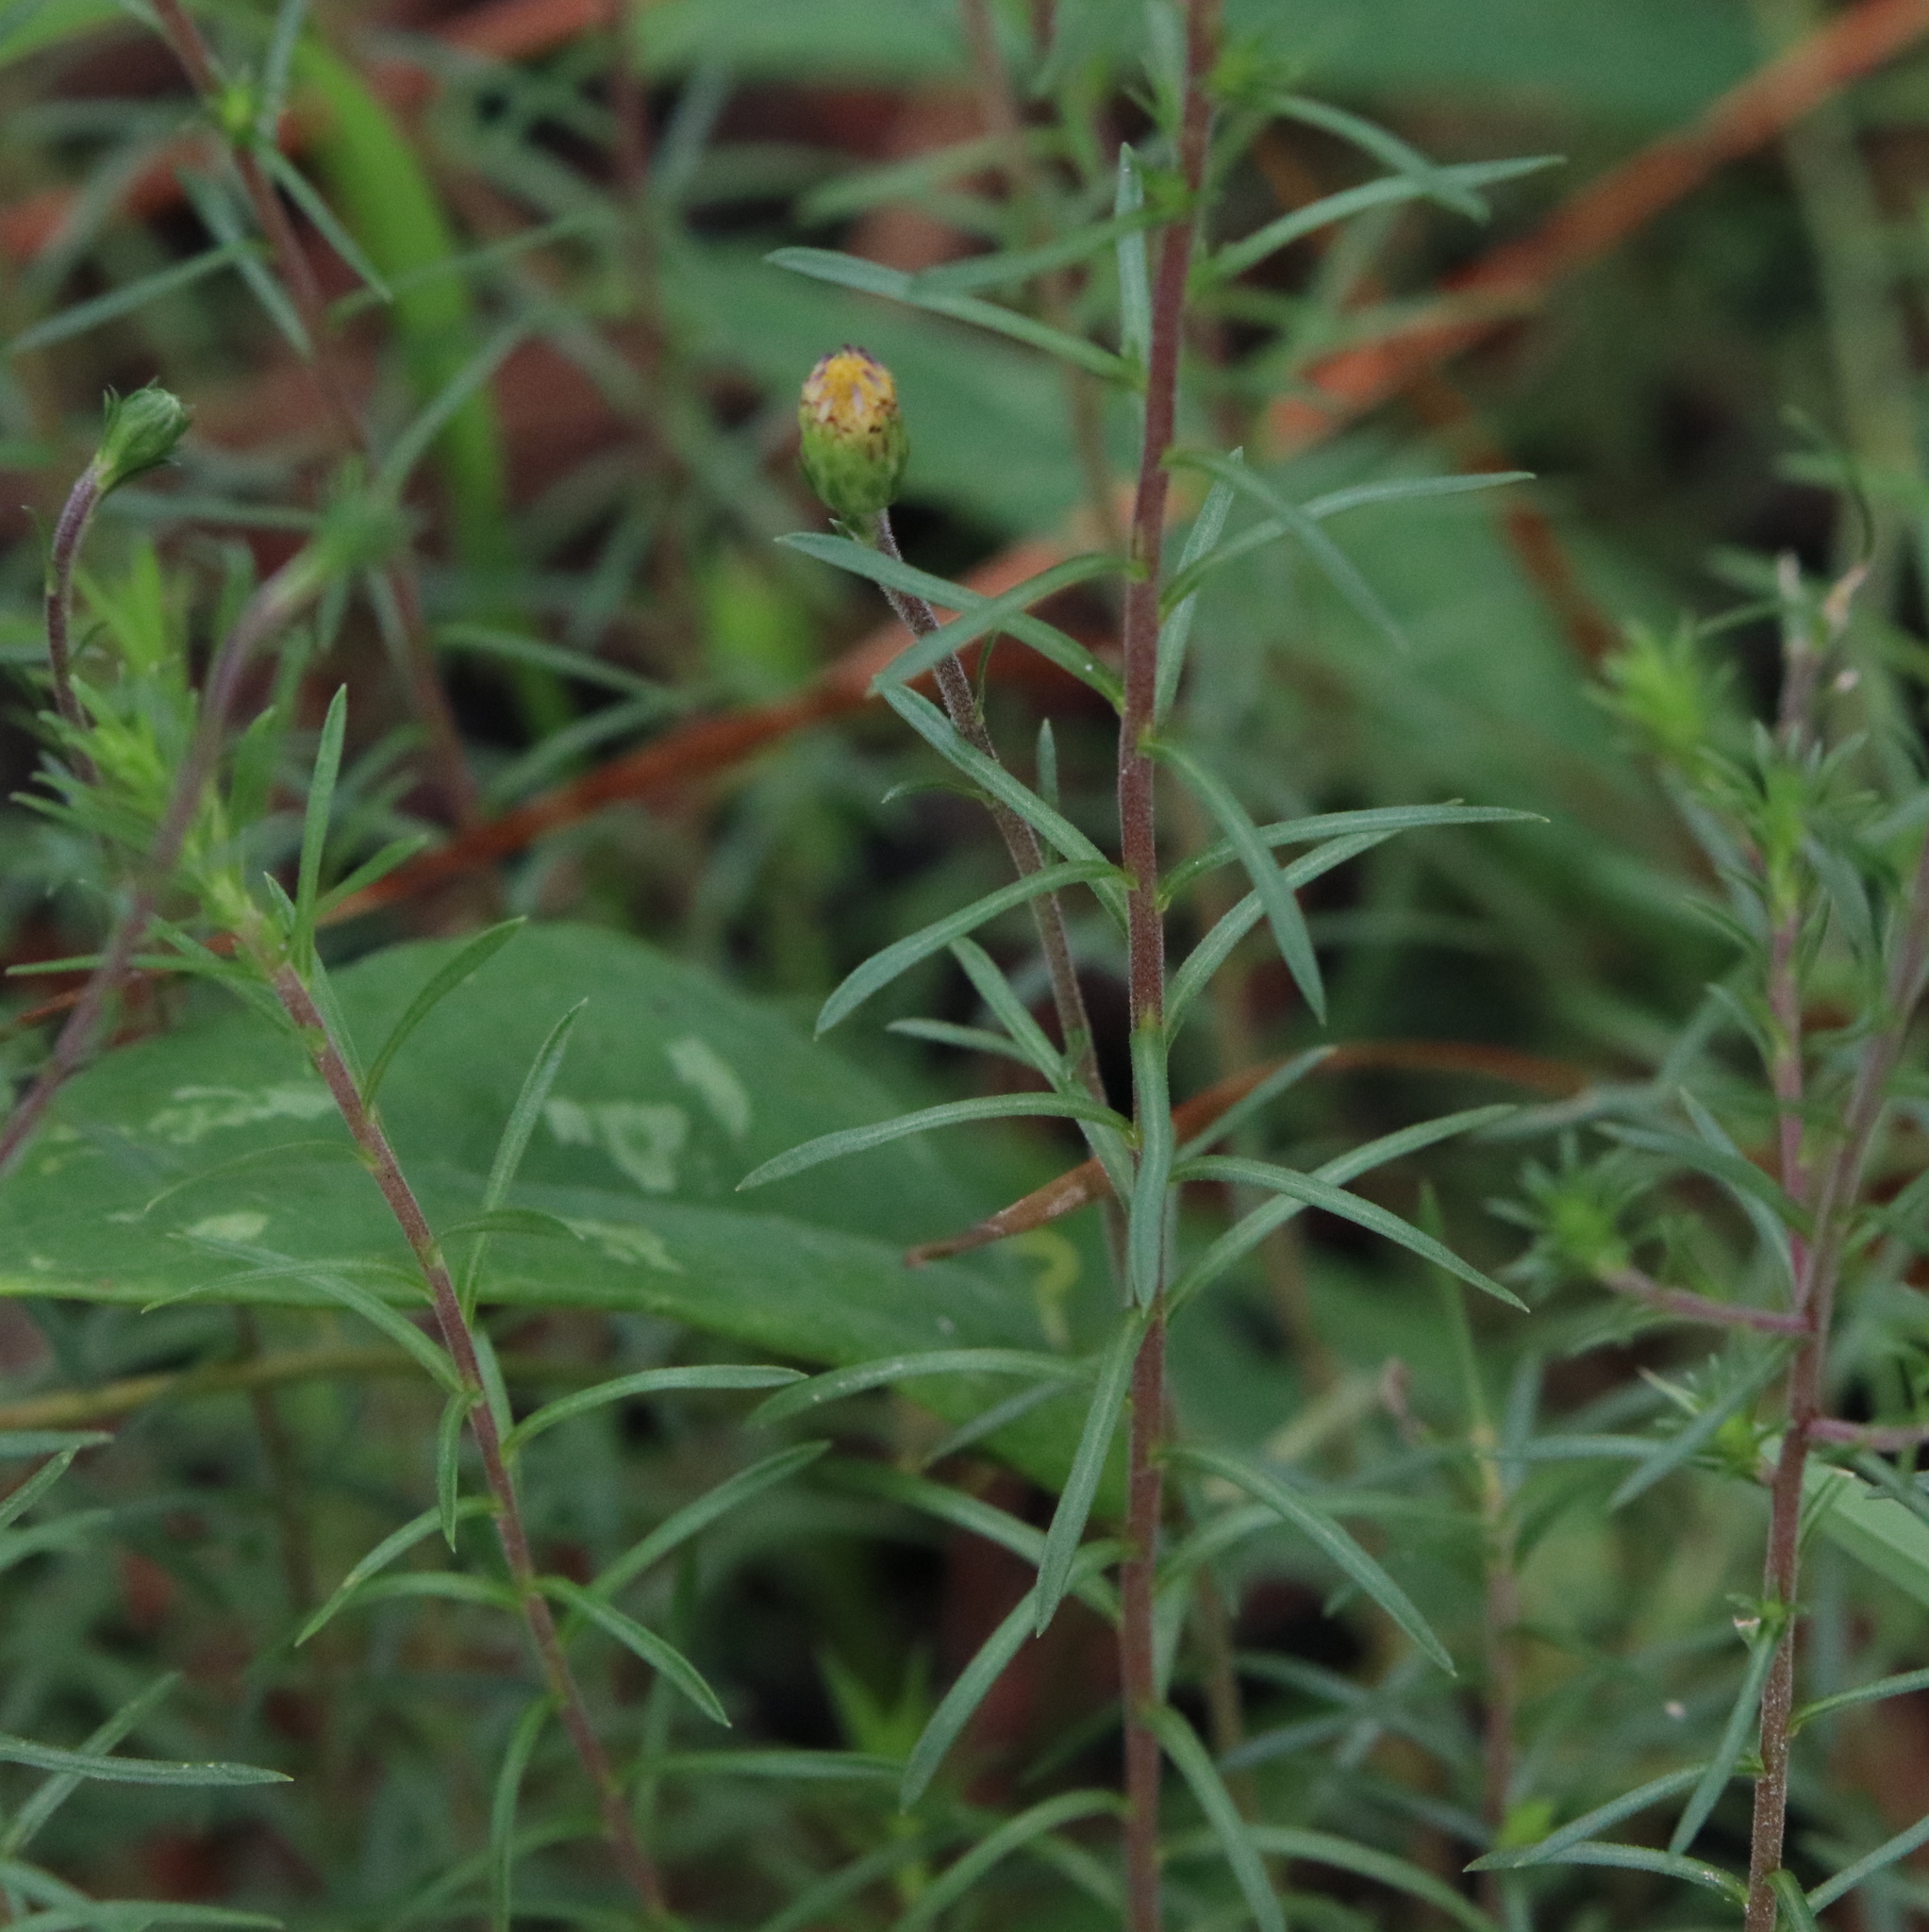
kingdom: Plantae
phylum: Tracheophyta
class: Magnoliopsida
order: Asterales
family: Asteraceae
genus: Ionactis
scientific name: Ionactis repens
